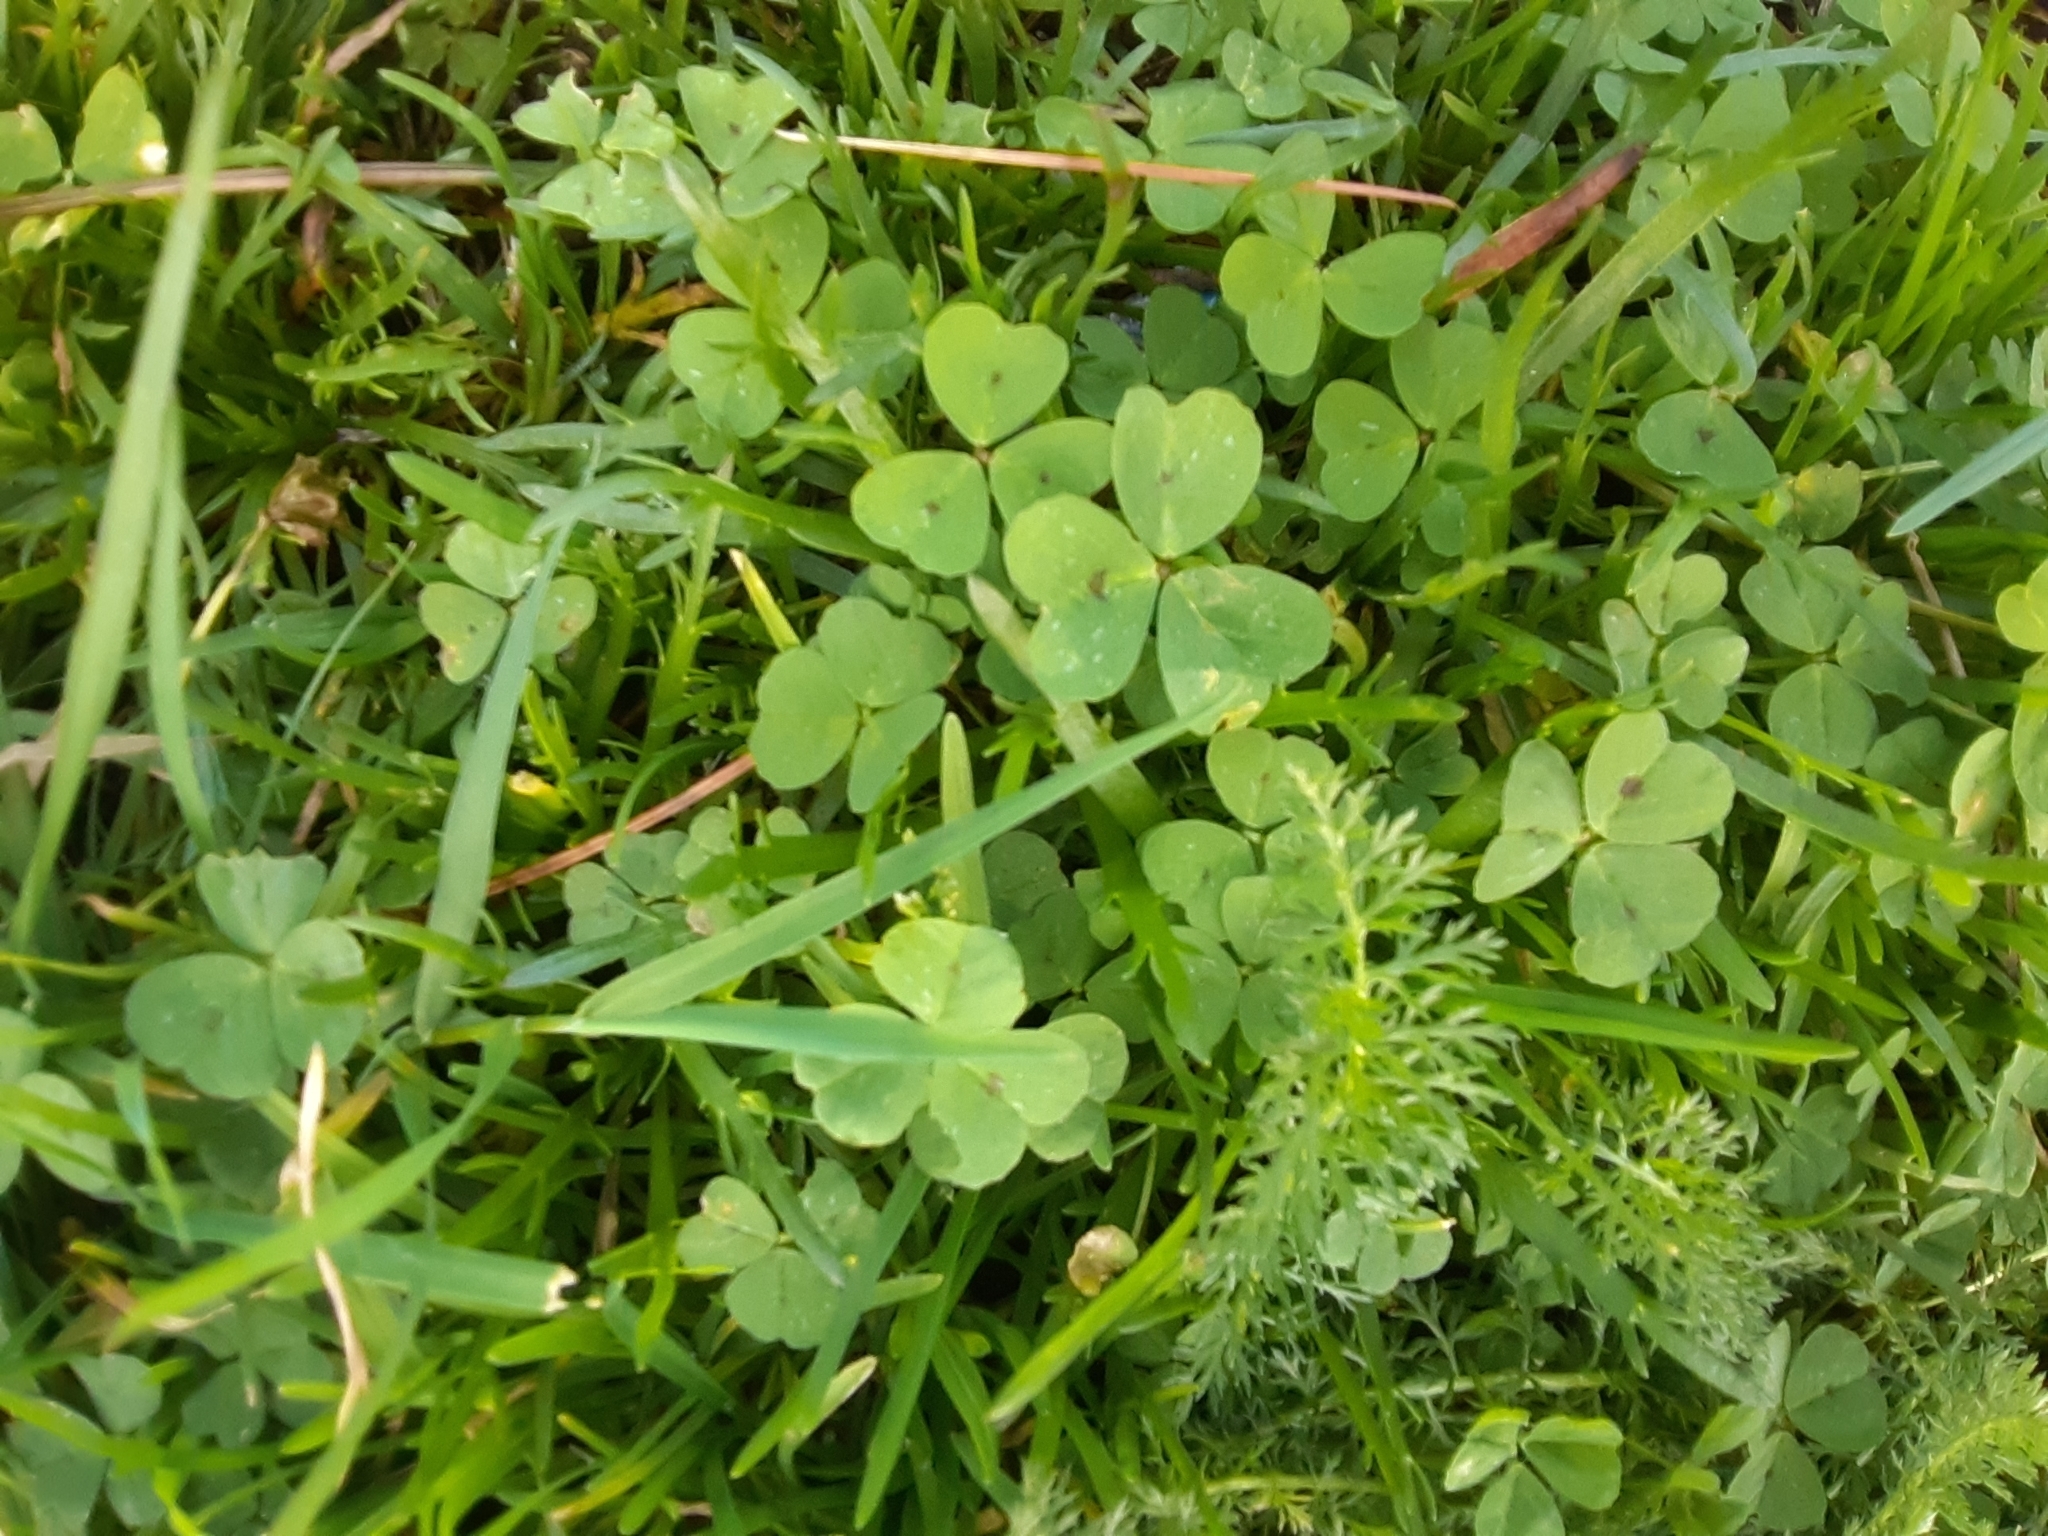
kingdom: Plantae
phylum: Tracheophyta
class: Magnoliopsida
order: Fabales
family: Fabaceae
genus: Medicago
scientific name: Medicago arabica
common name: Spotted medick
